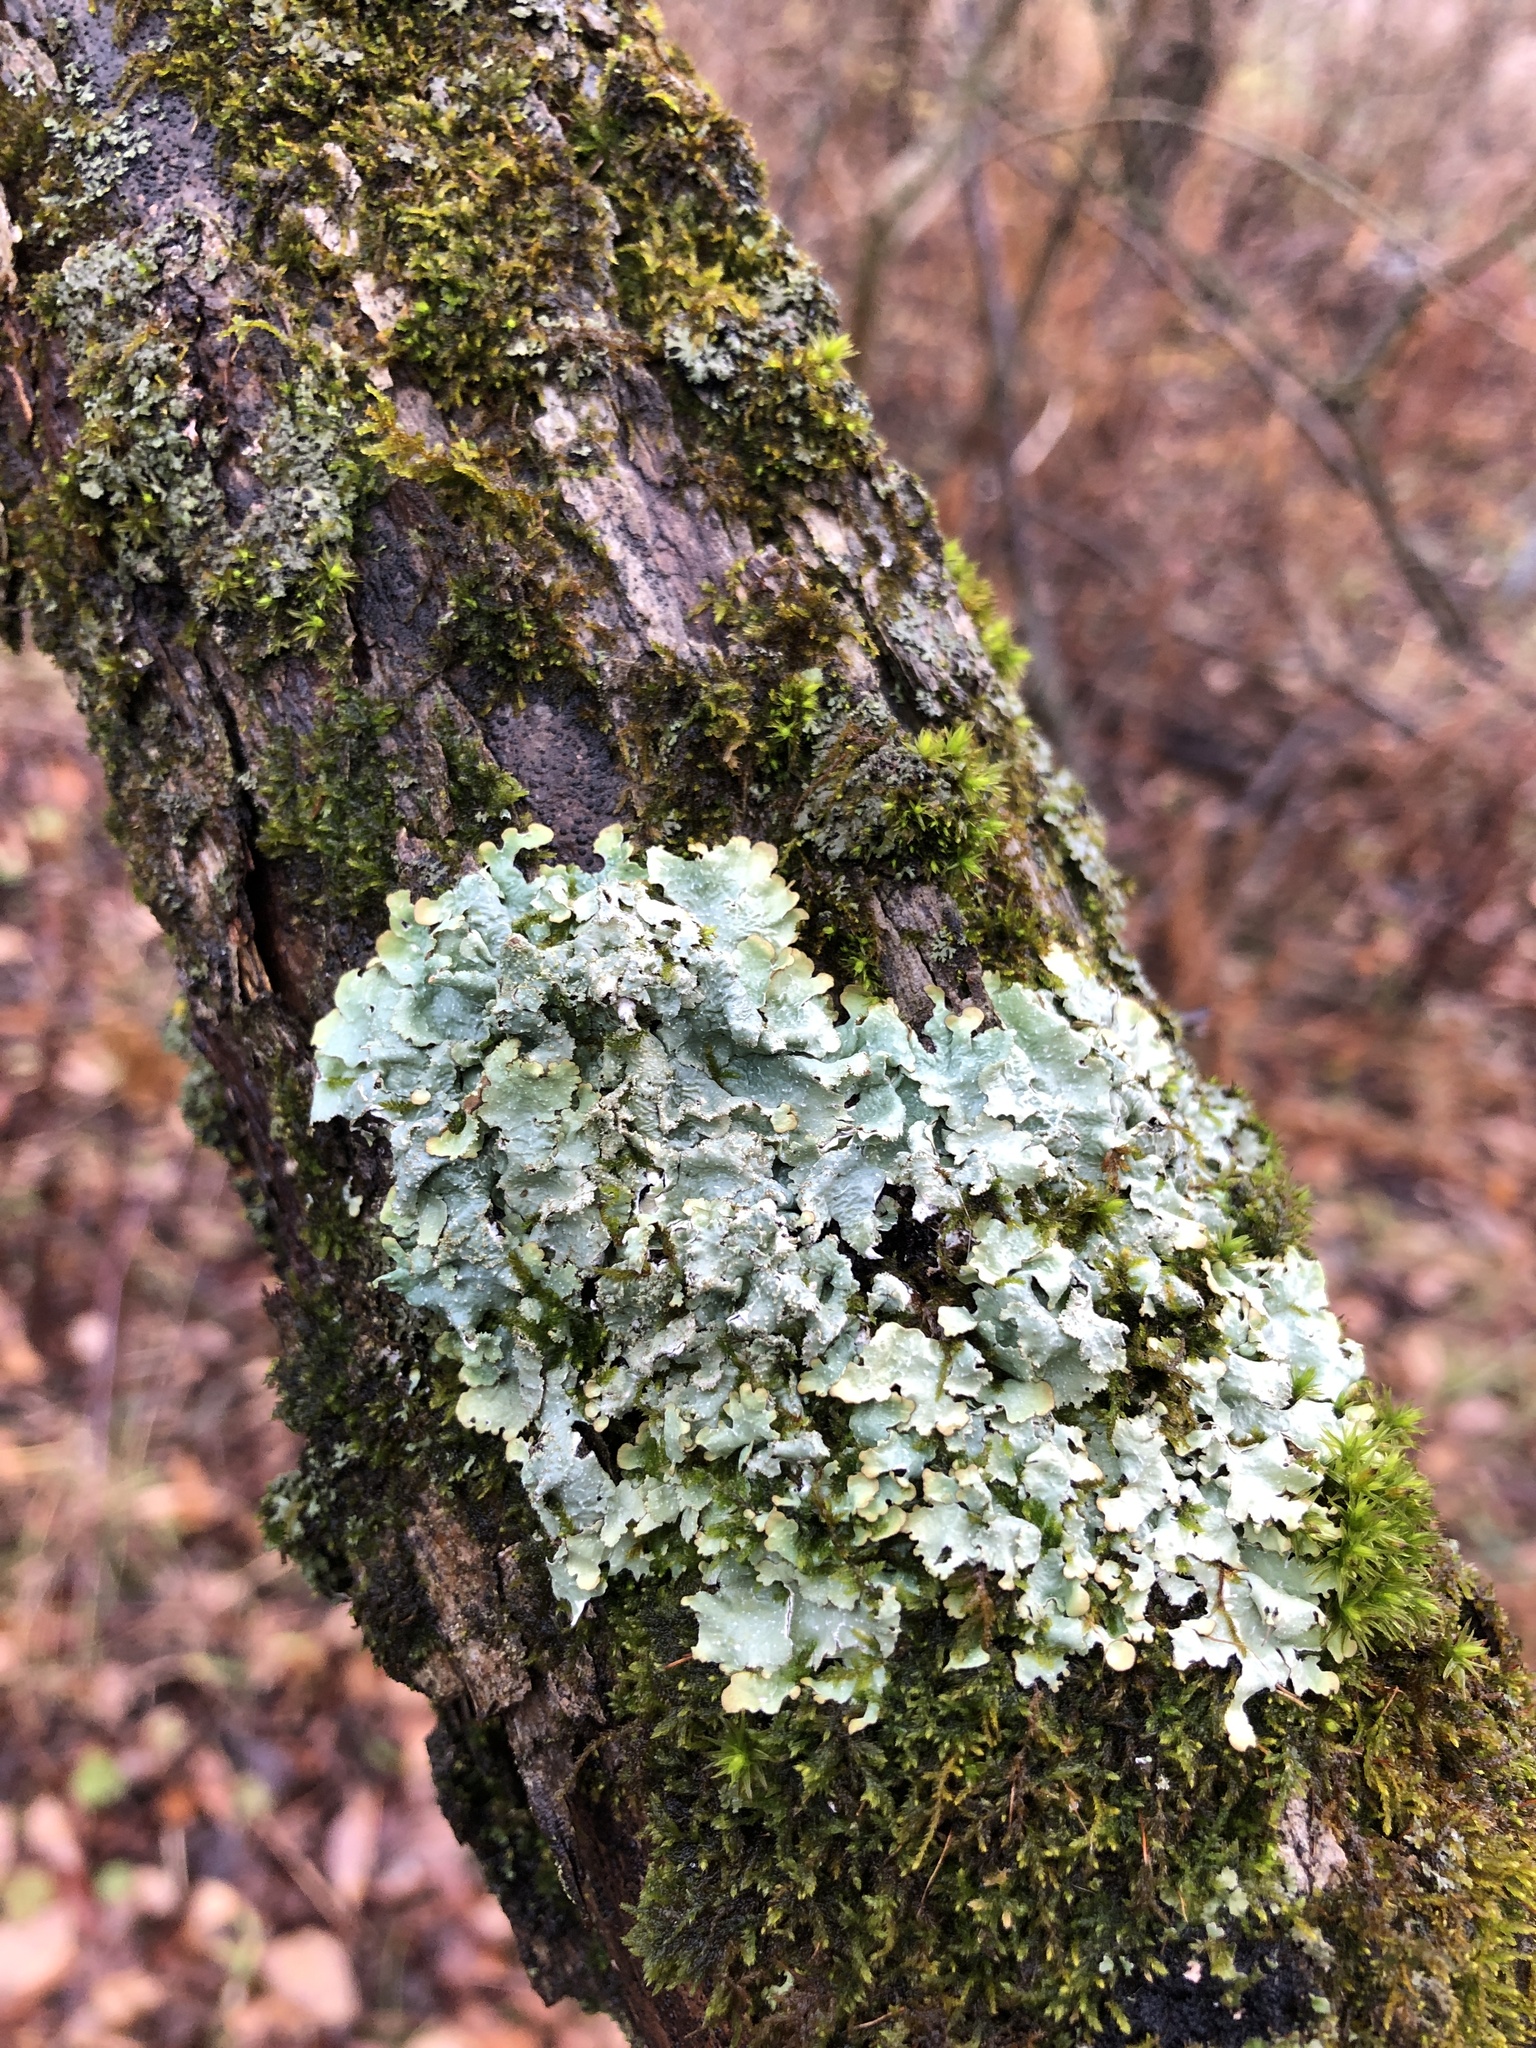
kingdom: Fungi
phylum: Ascomycota
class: Lecanoromycetes
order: Lecanorales
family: Parmeliaceae
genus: Punctelia
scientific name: Punctelia rudecta
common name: Rough speckled shield lichen
